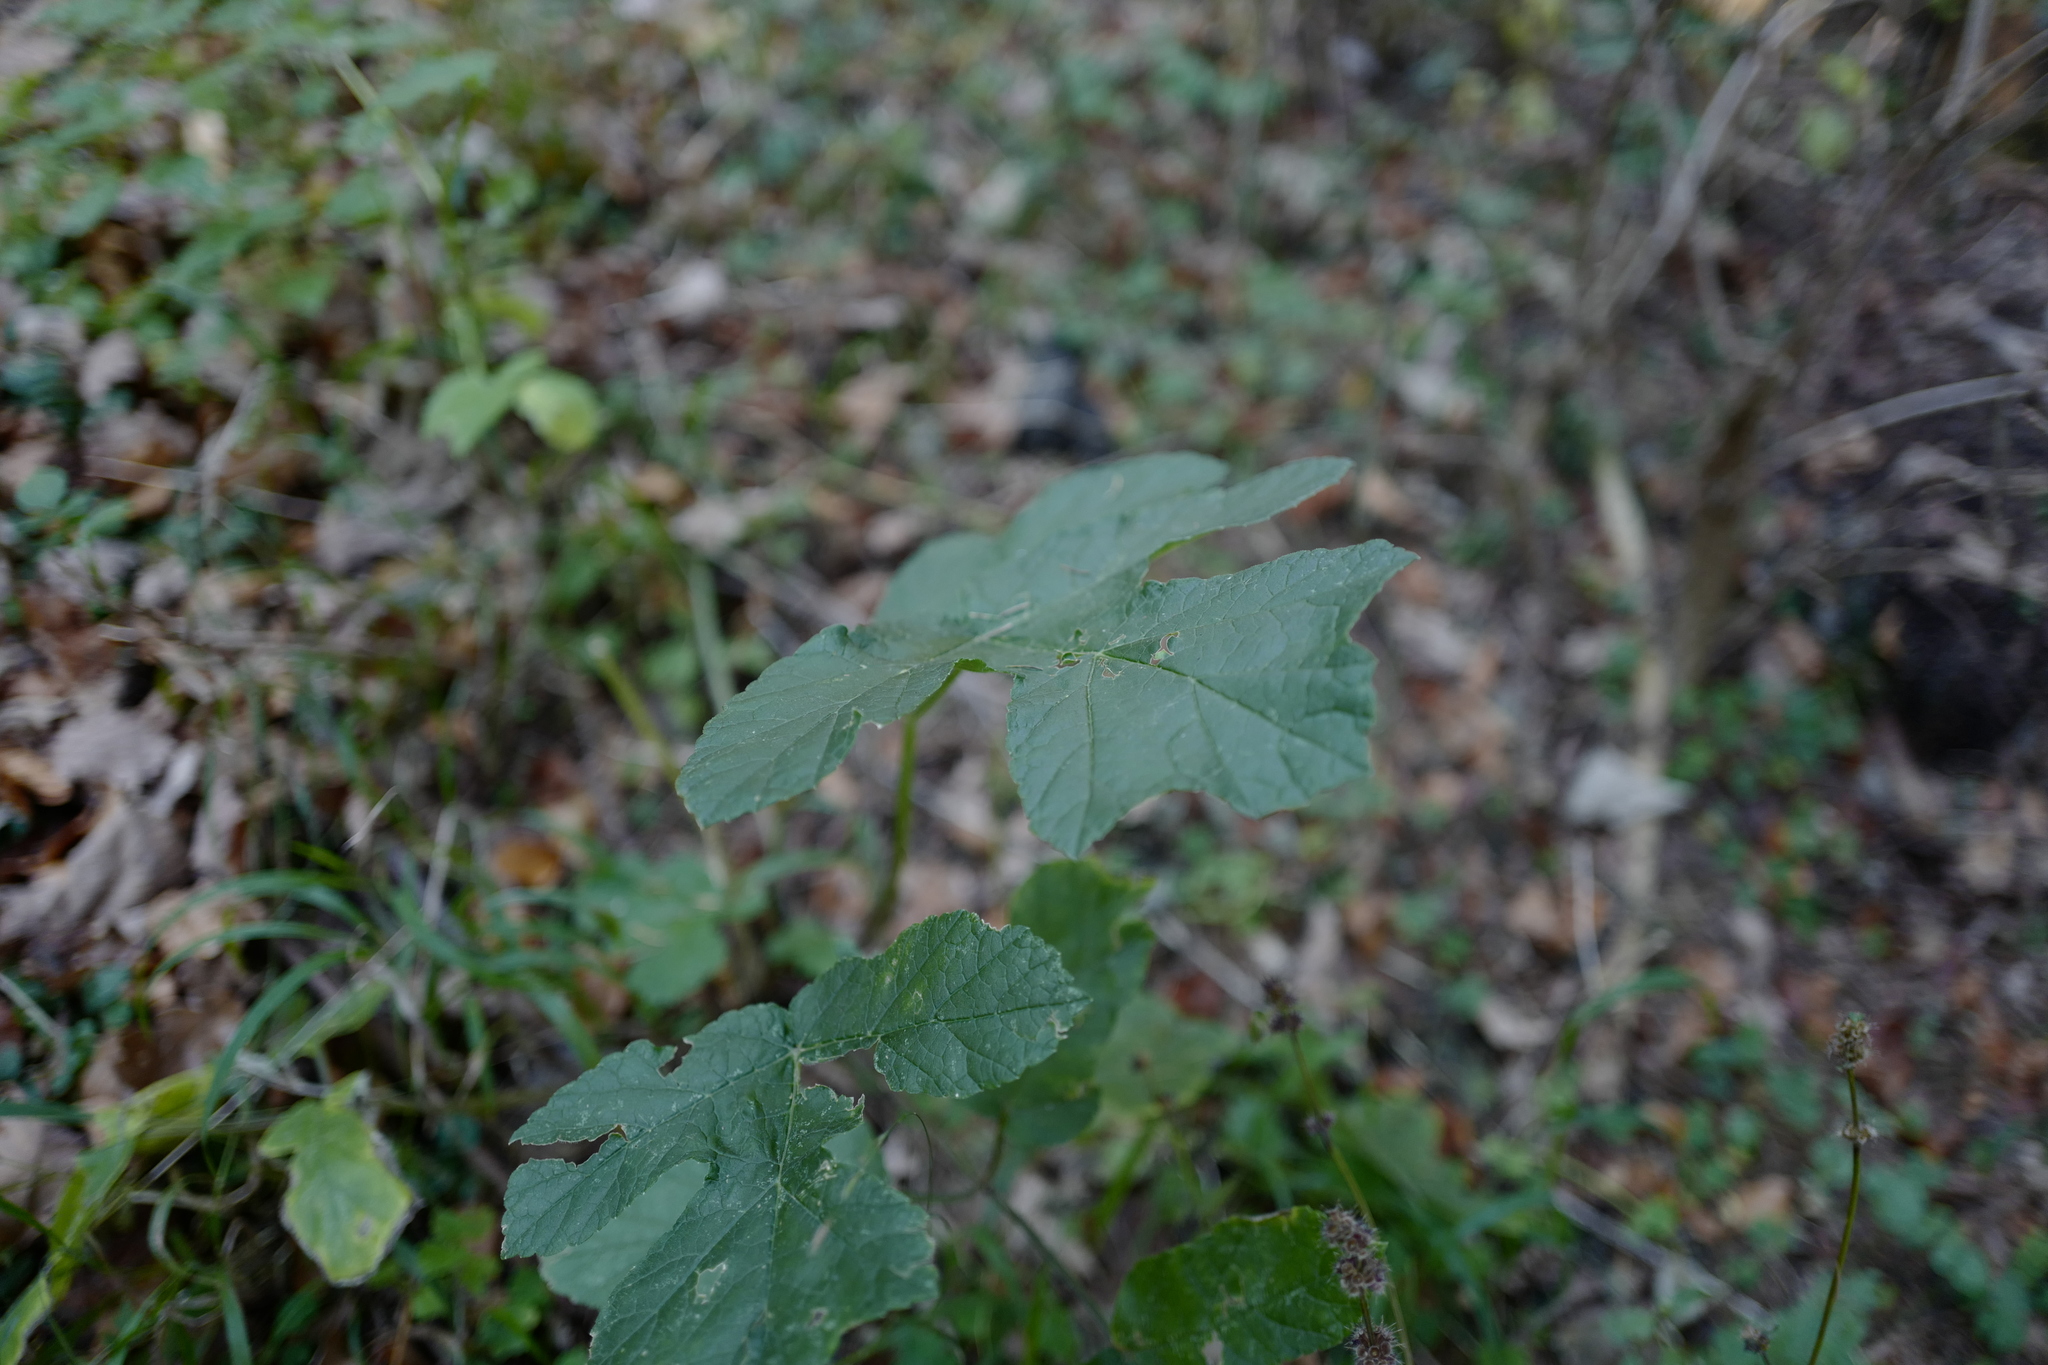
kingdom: Plantae
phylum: Tracheophyta
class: Magnoliopsida
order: Apiales
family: Apiaceae
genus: Heracleum
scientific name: Heracleum sphondylium
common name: Hogweed
